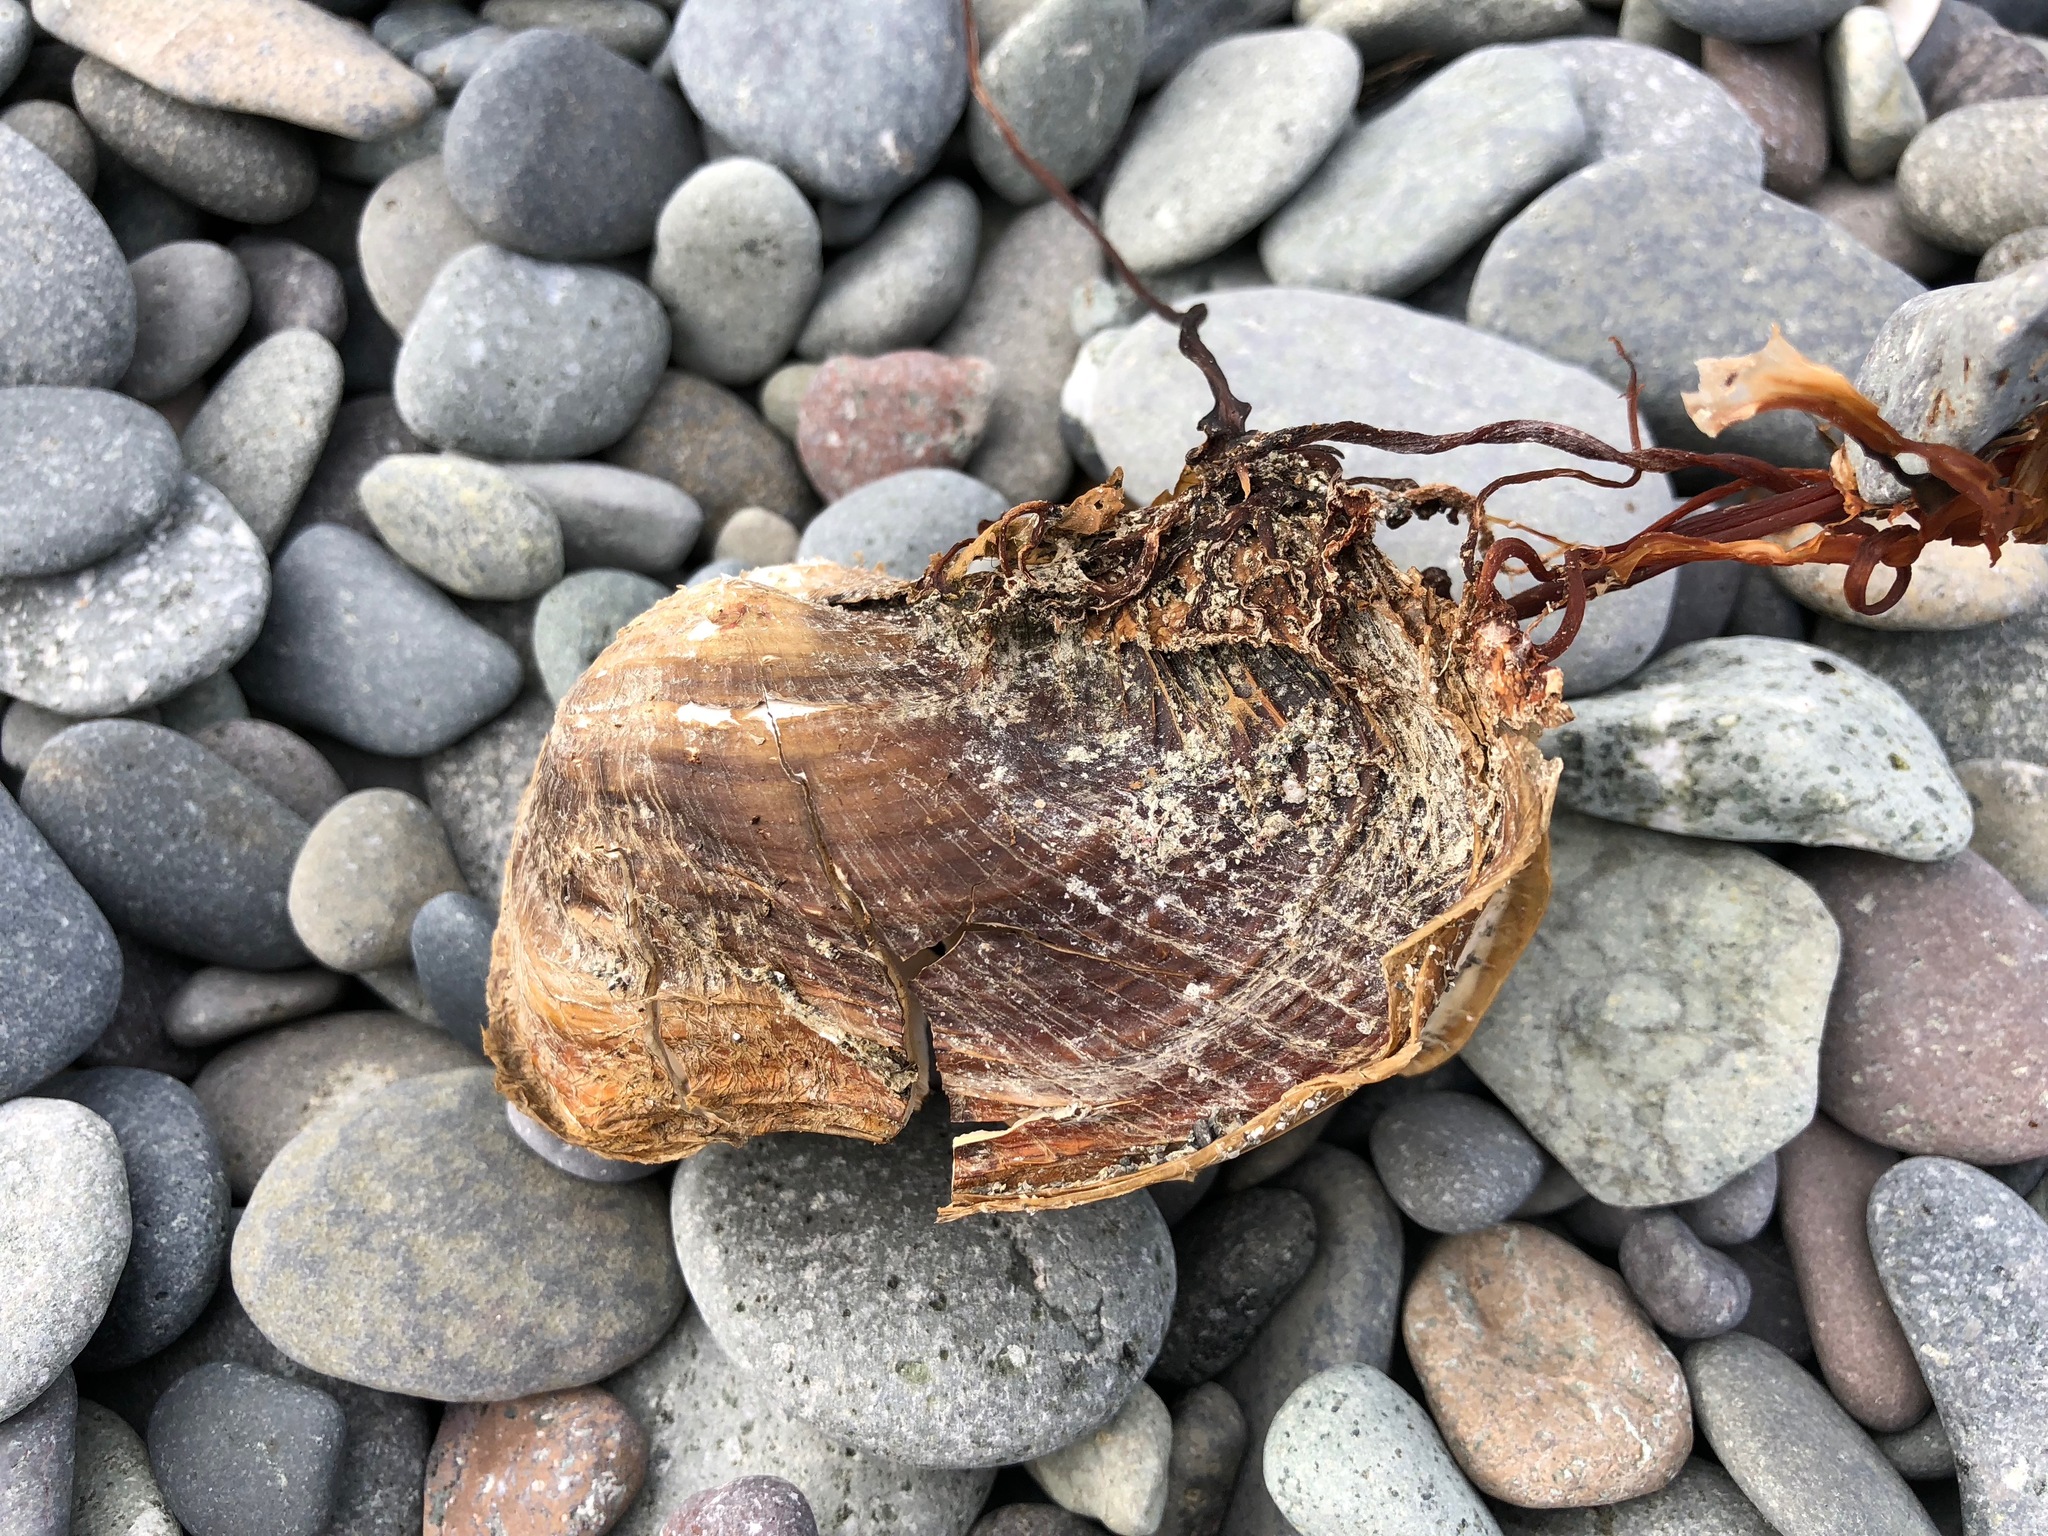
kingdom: Animalia
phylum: Mollusca
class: Bivalvia
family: Lyonsiidae
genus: Entodesma
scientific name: Entodesma navicula
